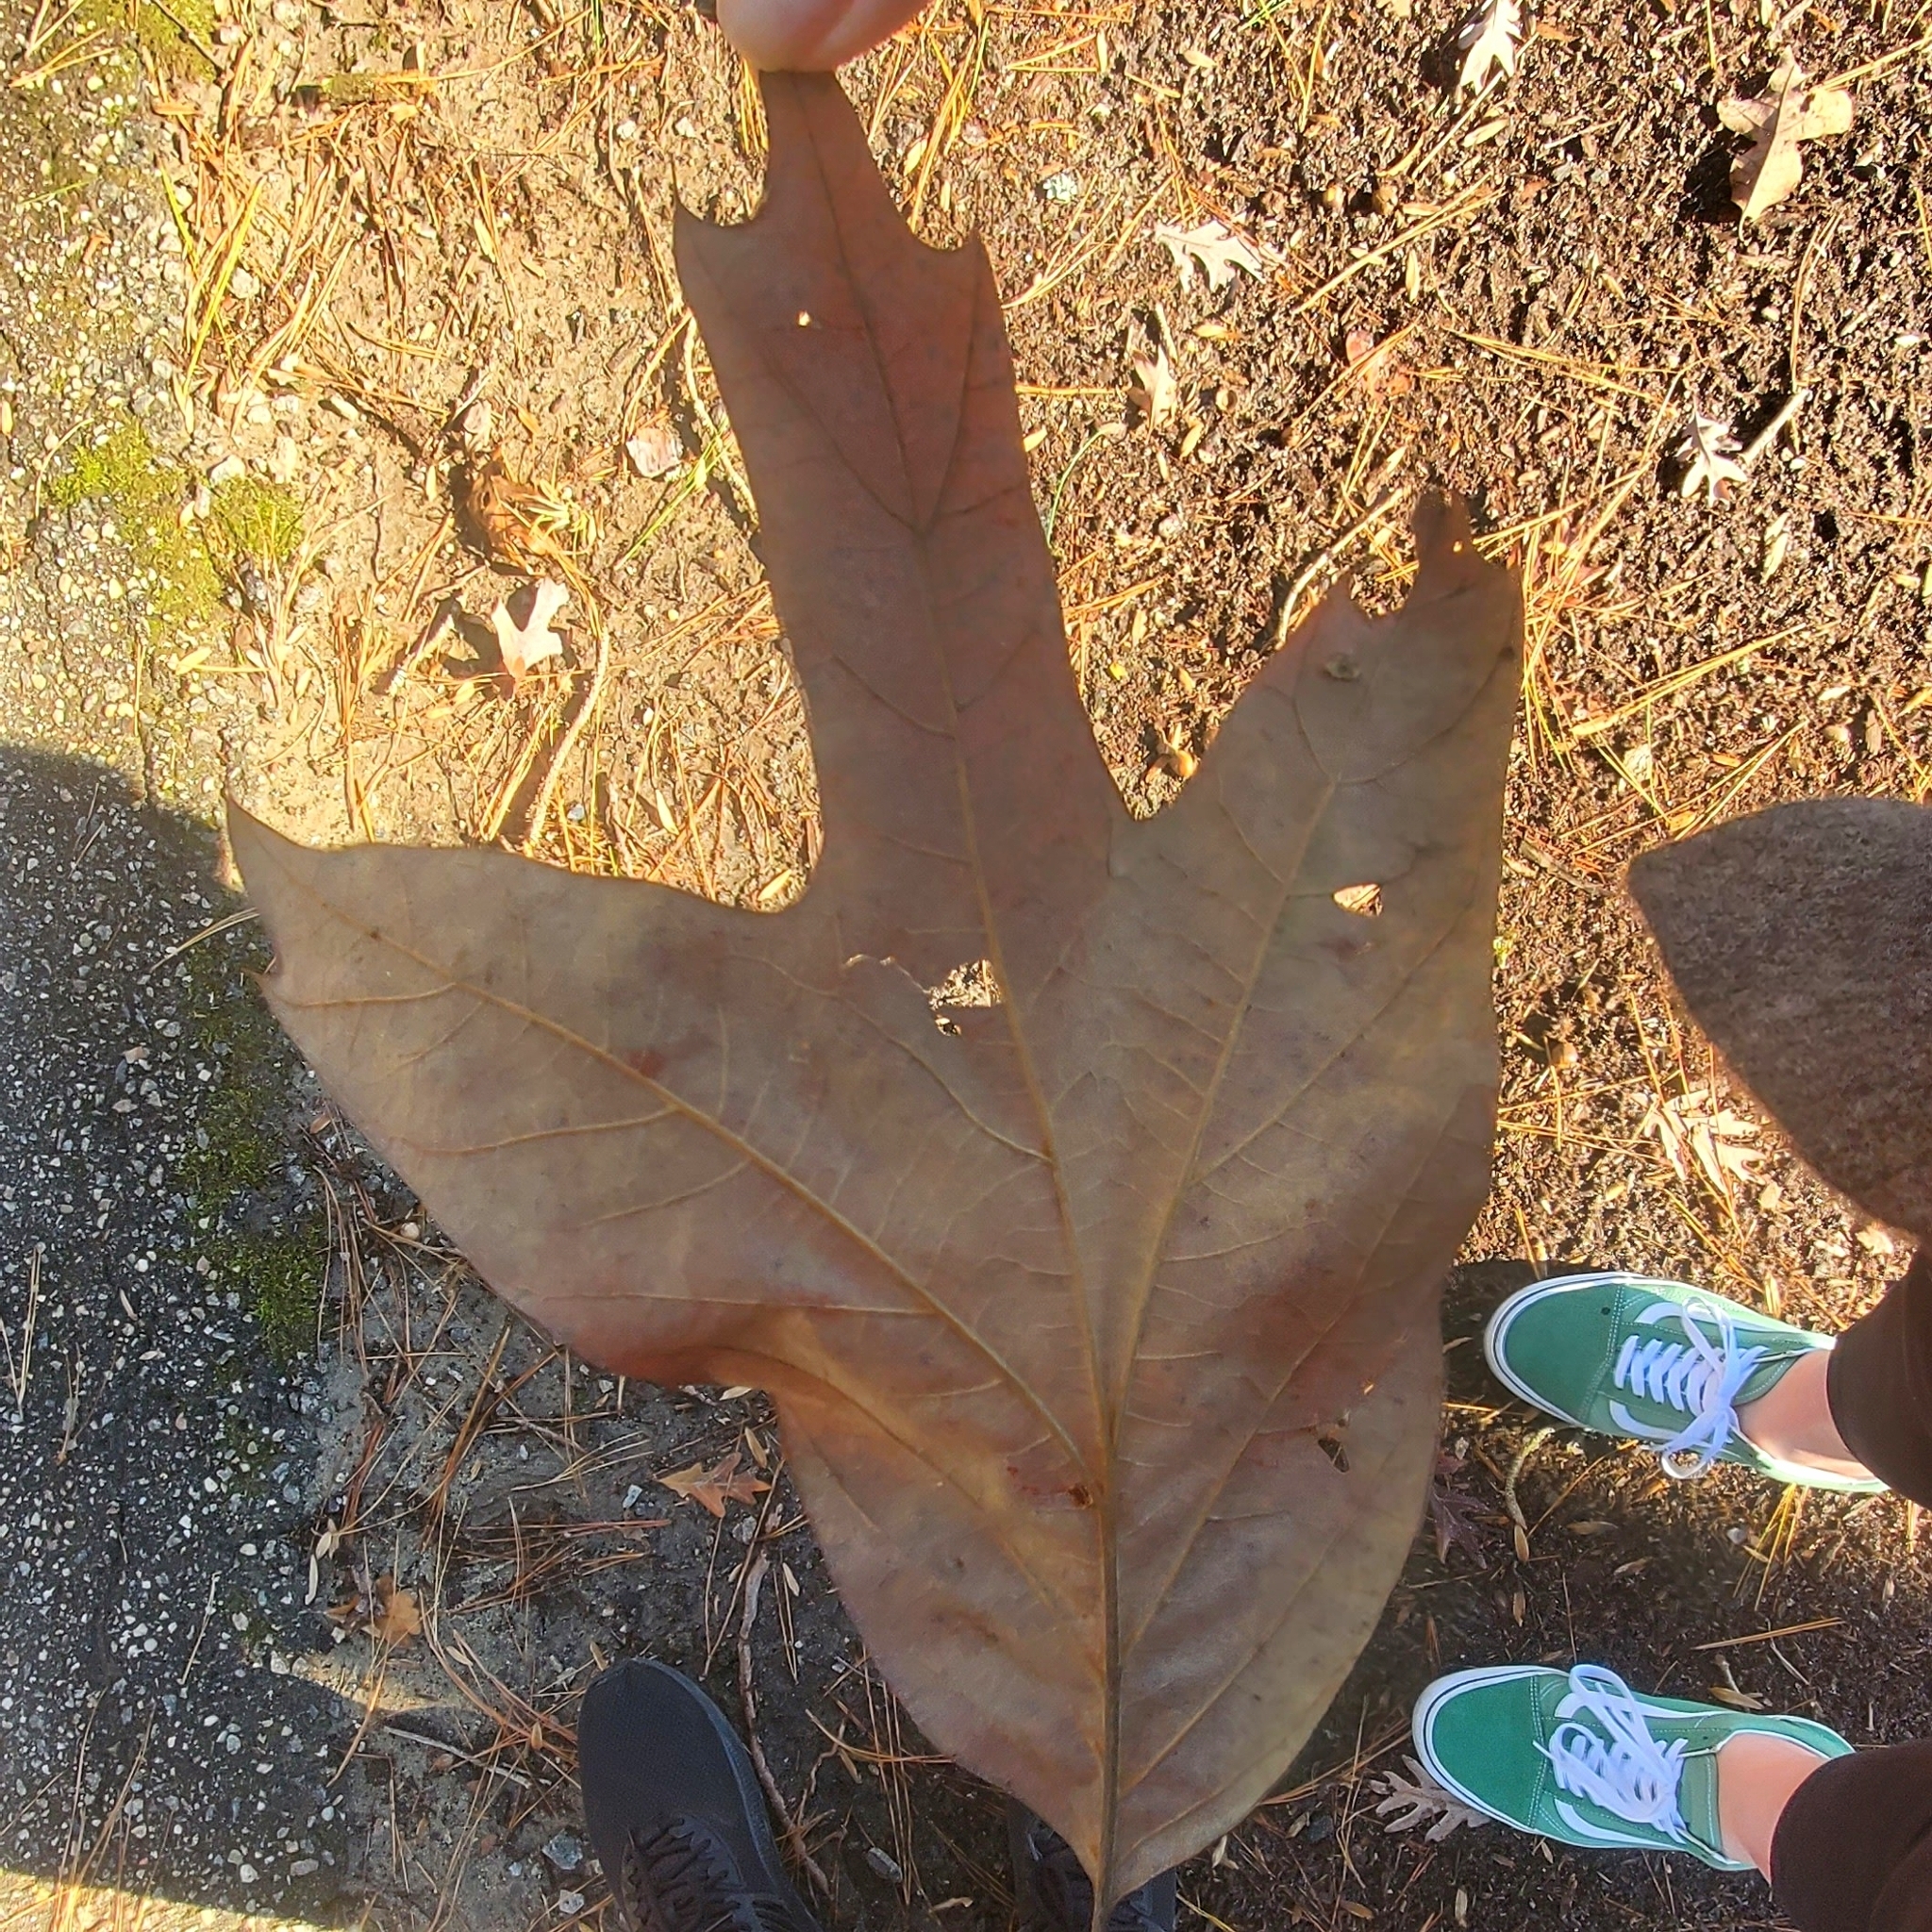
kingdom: Plantae
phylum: Tracheophyta
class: Magnoliopsida
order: Fagales
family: Fagaceae
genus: Quercus
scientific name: Quercus falcata
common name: Southern red oak
